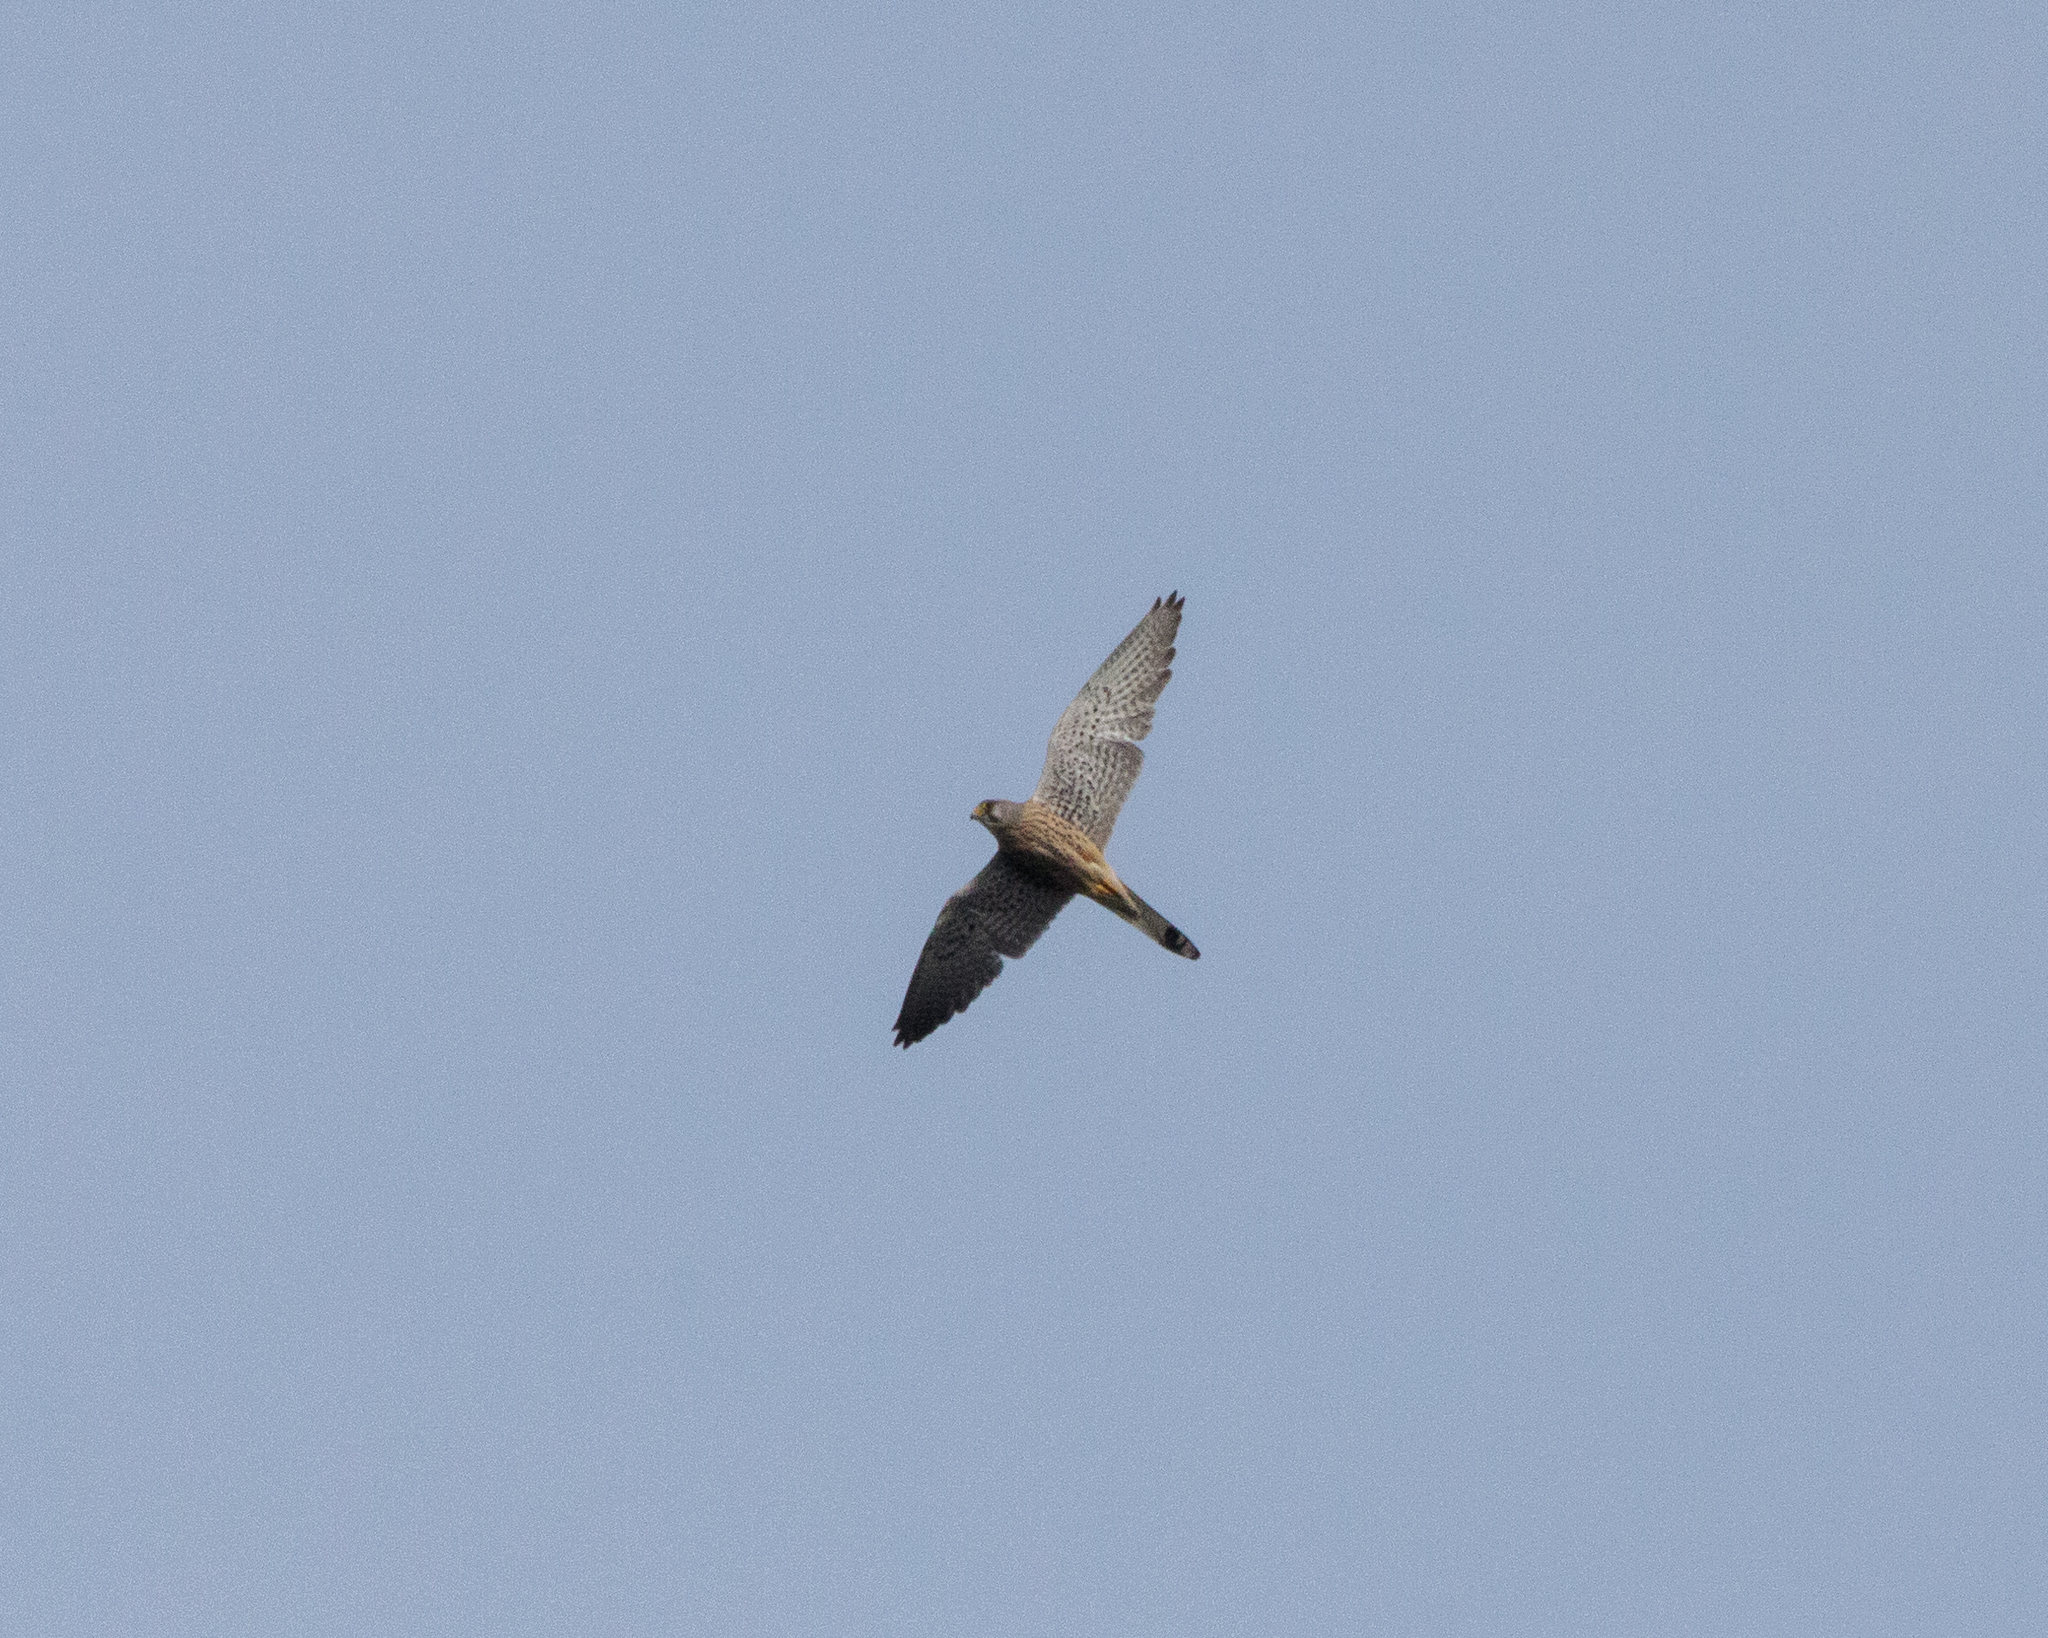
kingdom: Animalia
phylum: Chordata
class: Aves
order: Falconiformes
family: Falconidae
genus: Falco
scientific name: Falco tinnunculus
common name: Common kestrel
